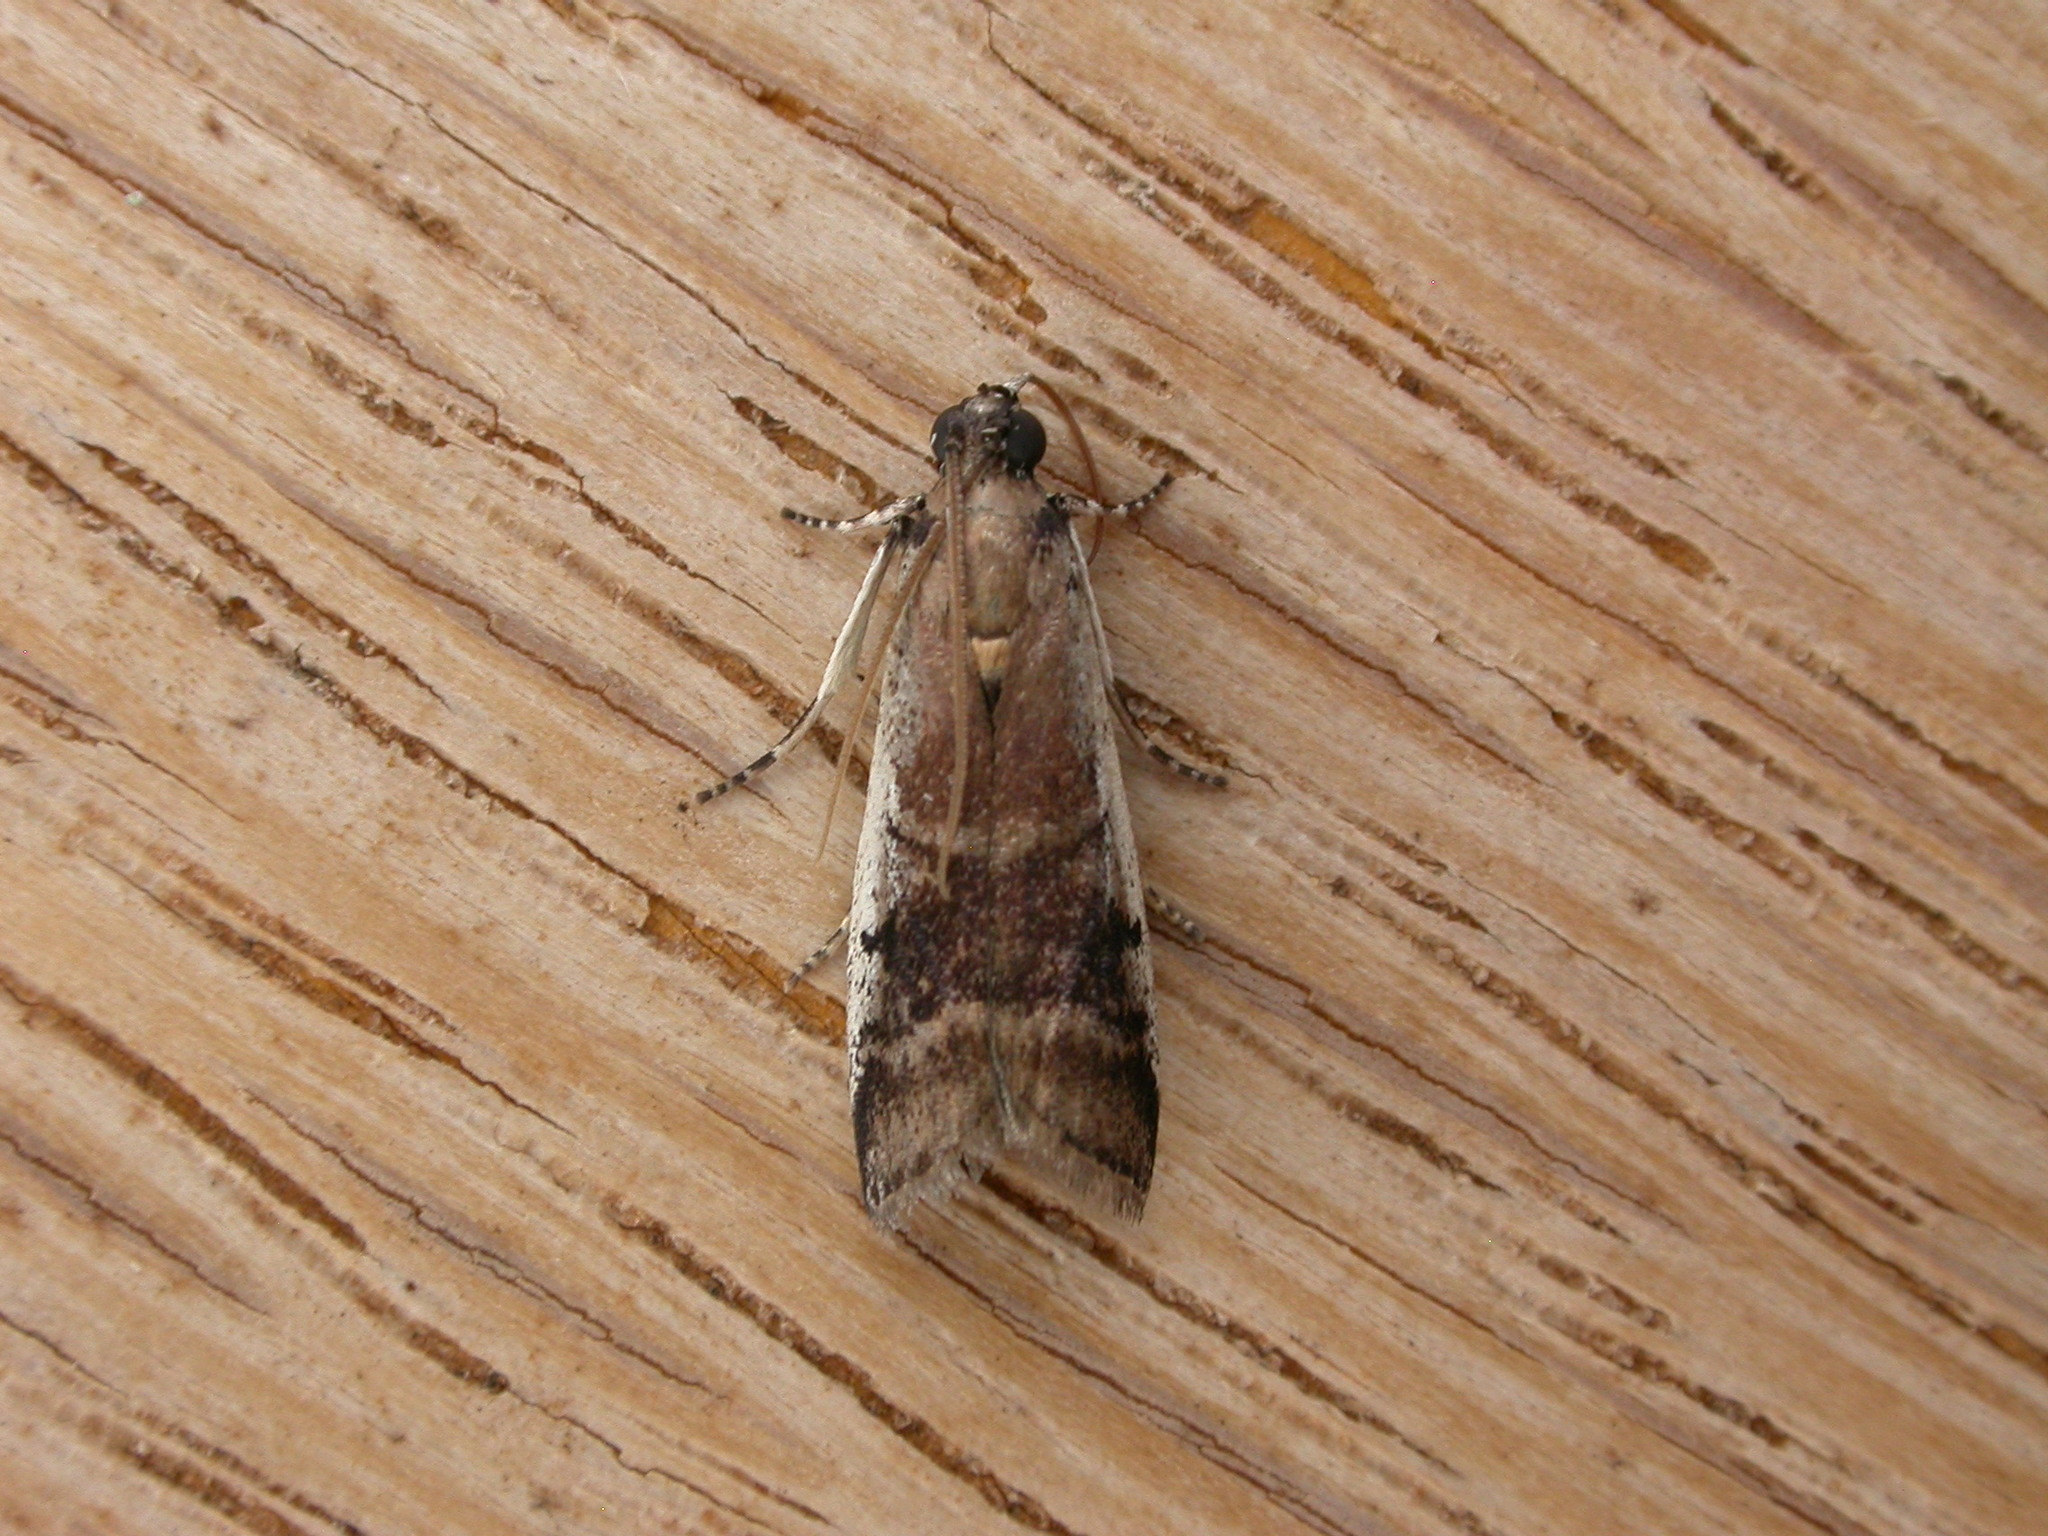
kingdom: Animalia
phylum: Arthropoda
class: Insecta
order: Lepidoptera
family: Pyralidae
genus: Creobota
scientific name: Creobota apodectum
